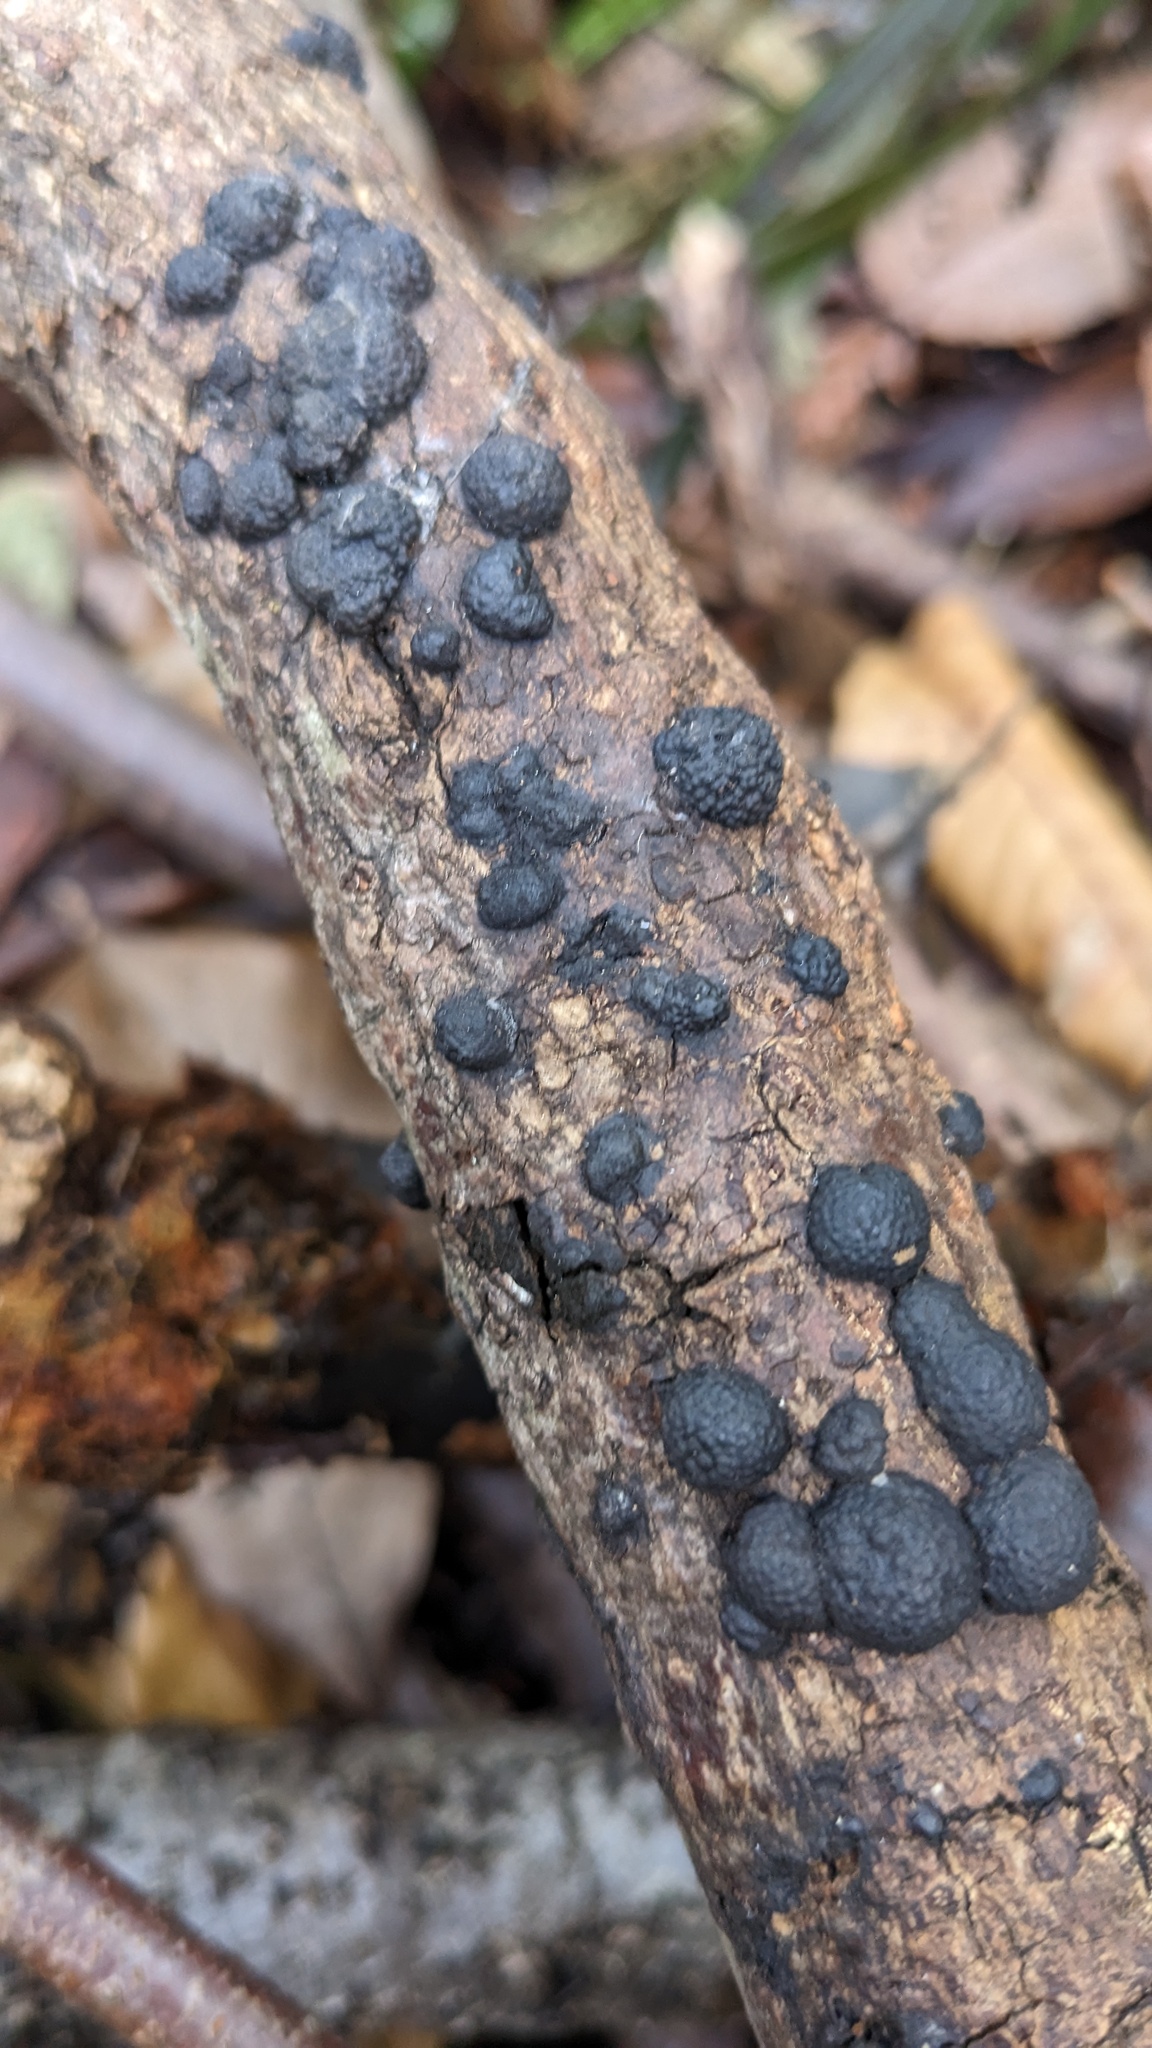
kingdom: Fungi
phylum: Ascomycota
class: Sordariomycetes
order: Xylariales
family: Hypoxylaceae
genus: Annulohypoxylon
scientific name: Annulohypoxylon truncatum
